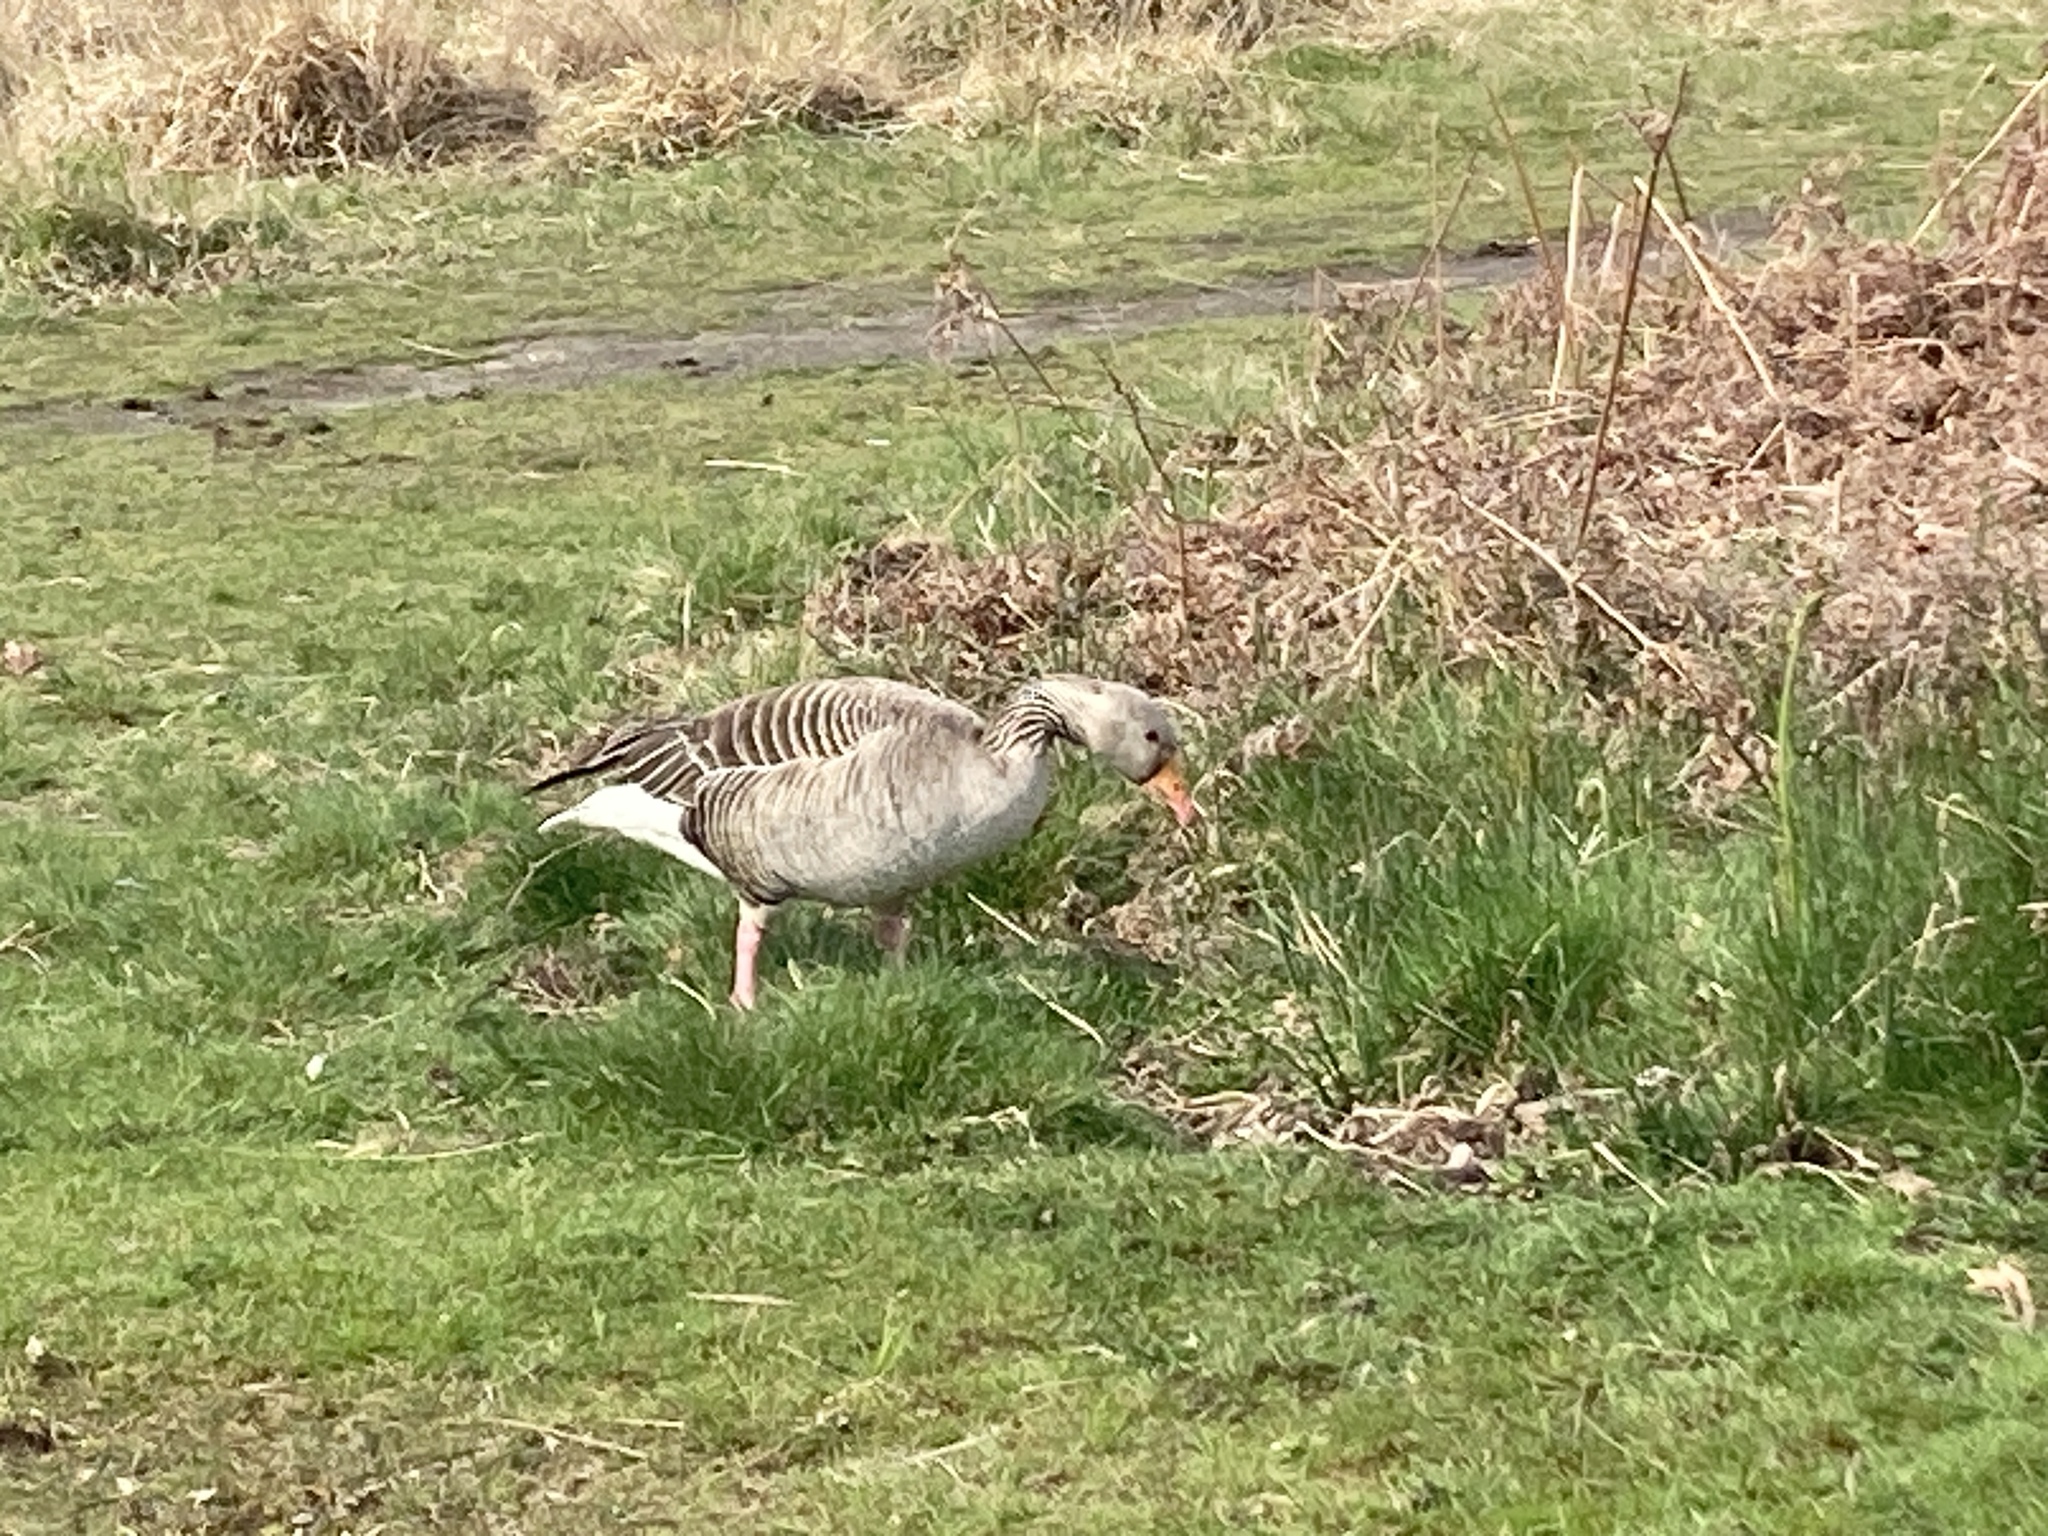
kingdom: Animalia
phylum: Chordata
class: Aves
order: Anseriformes
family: Anatidae
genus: Anser
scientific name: Anser anser
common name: Greylag goose
